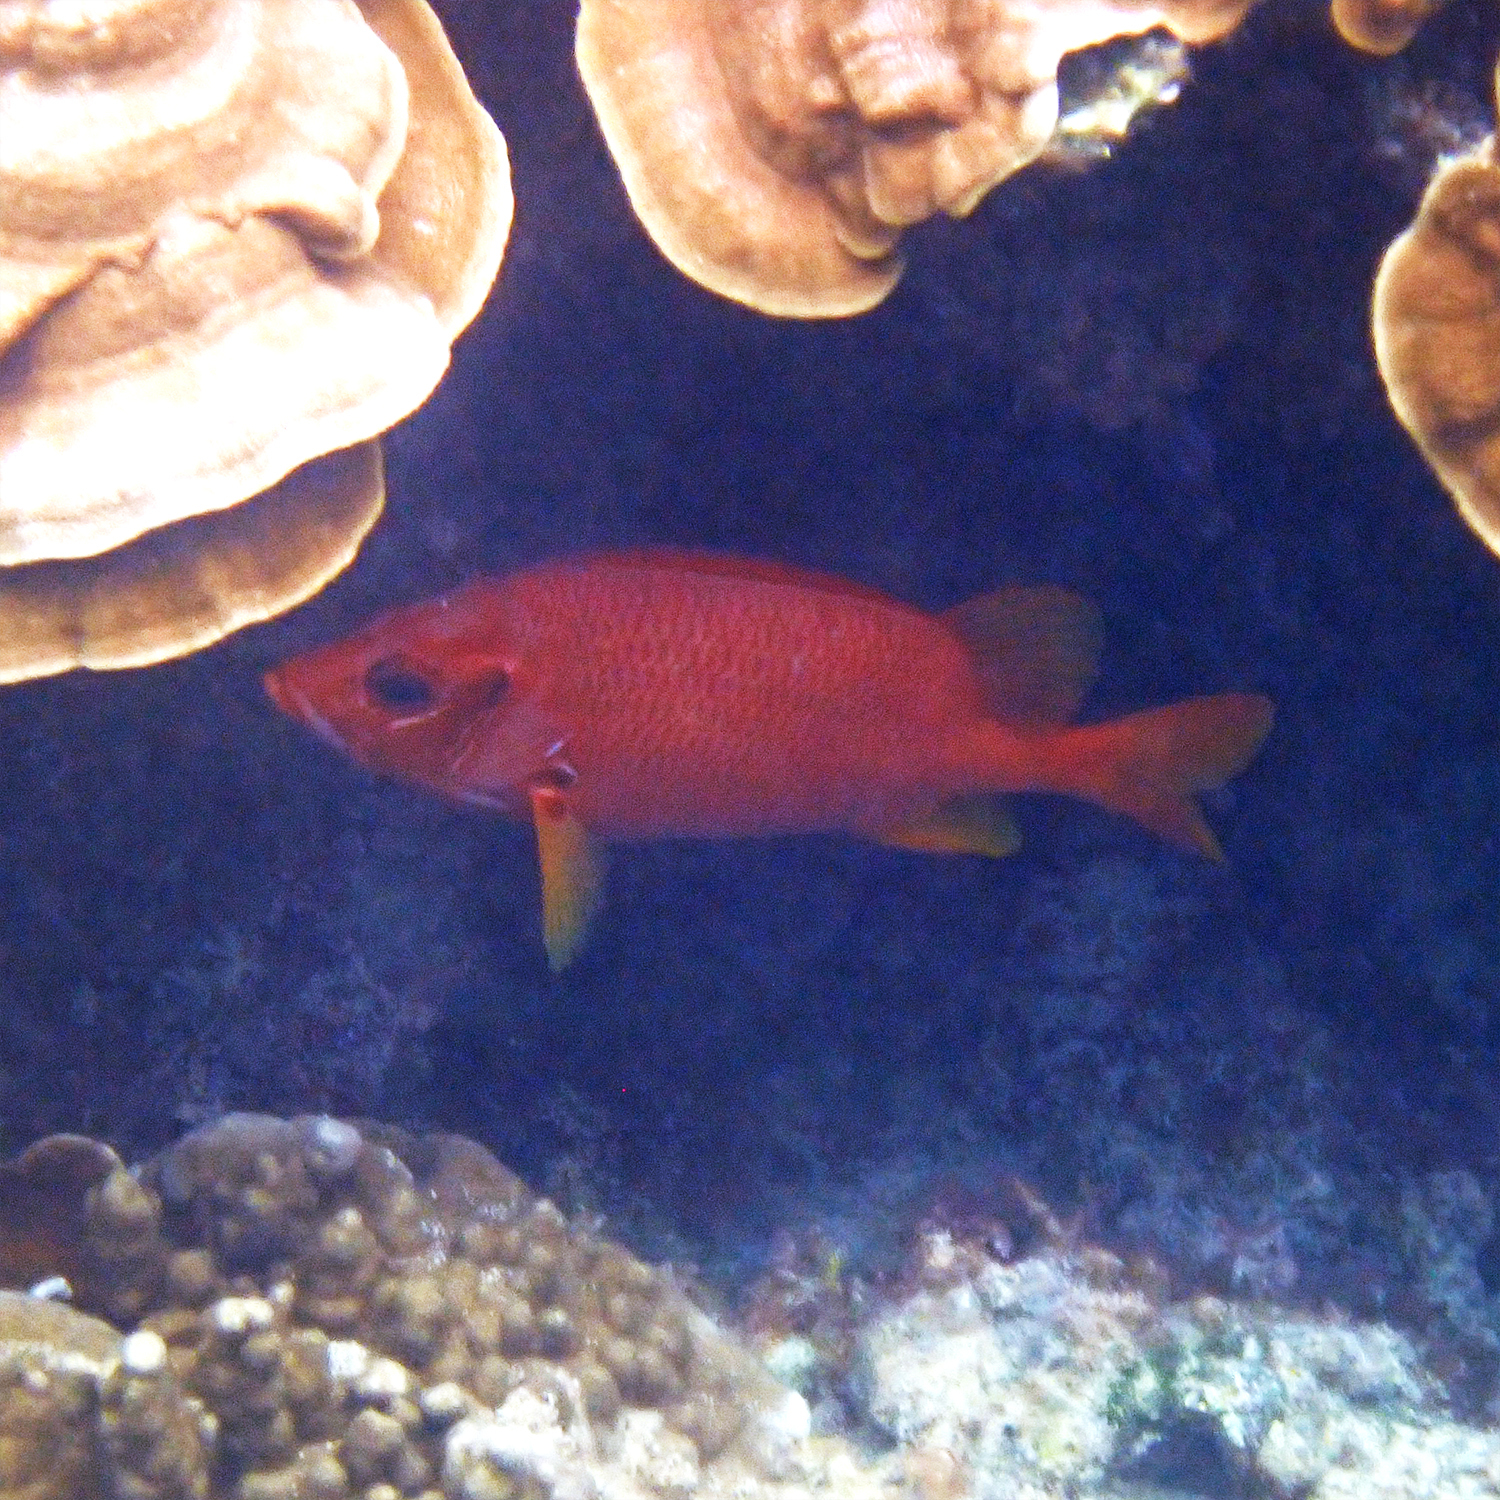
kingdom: Animalia
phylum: Chordata
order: Beryciformes
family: Holocentridae
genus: Sargocentron
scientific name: Sargocentron spiniferum
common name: Giant squirrelfish
